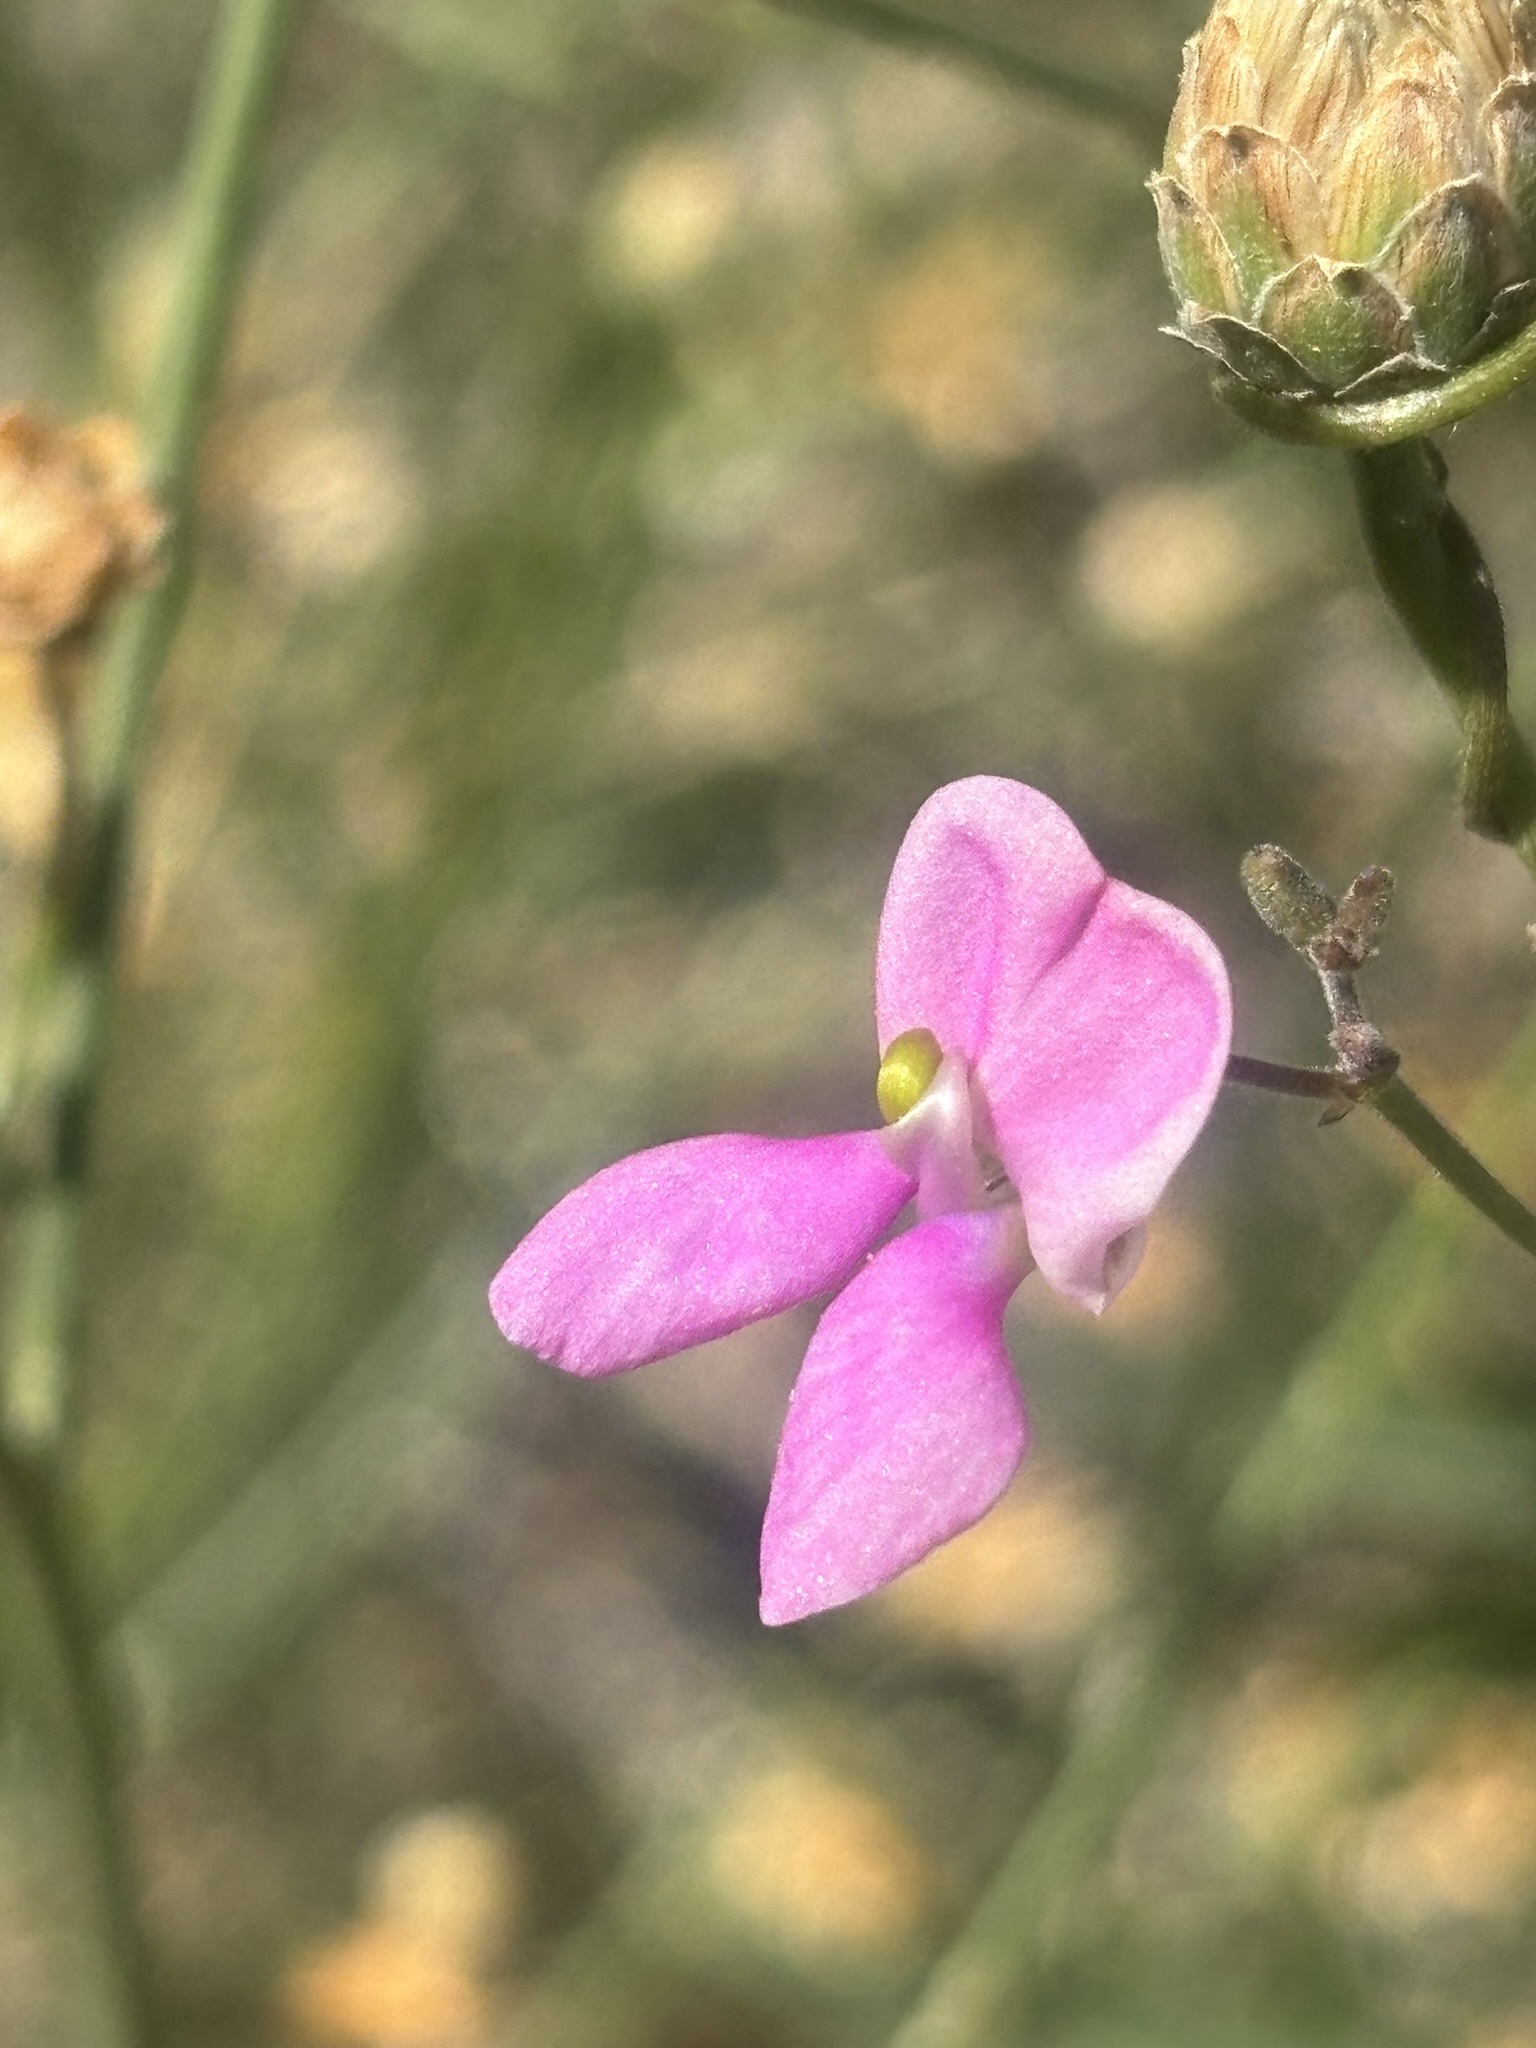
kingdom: Plantae
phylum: Tracheophyta
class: Magnoliopsida
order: Fabales
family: Fabaceae
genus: Phaseolus
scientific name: Phaseolus filiformis
